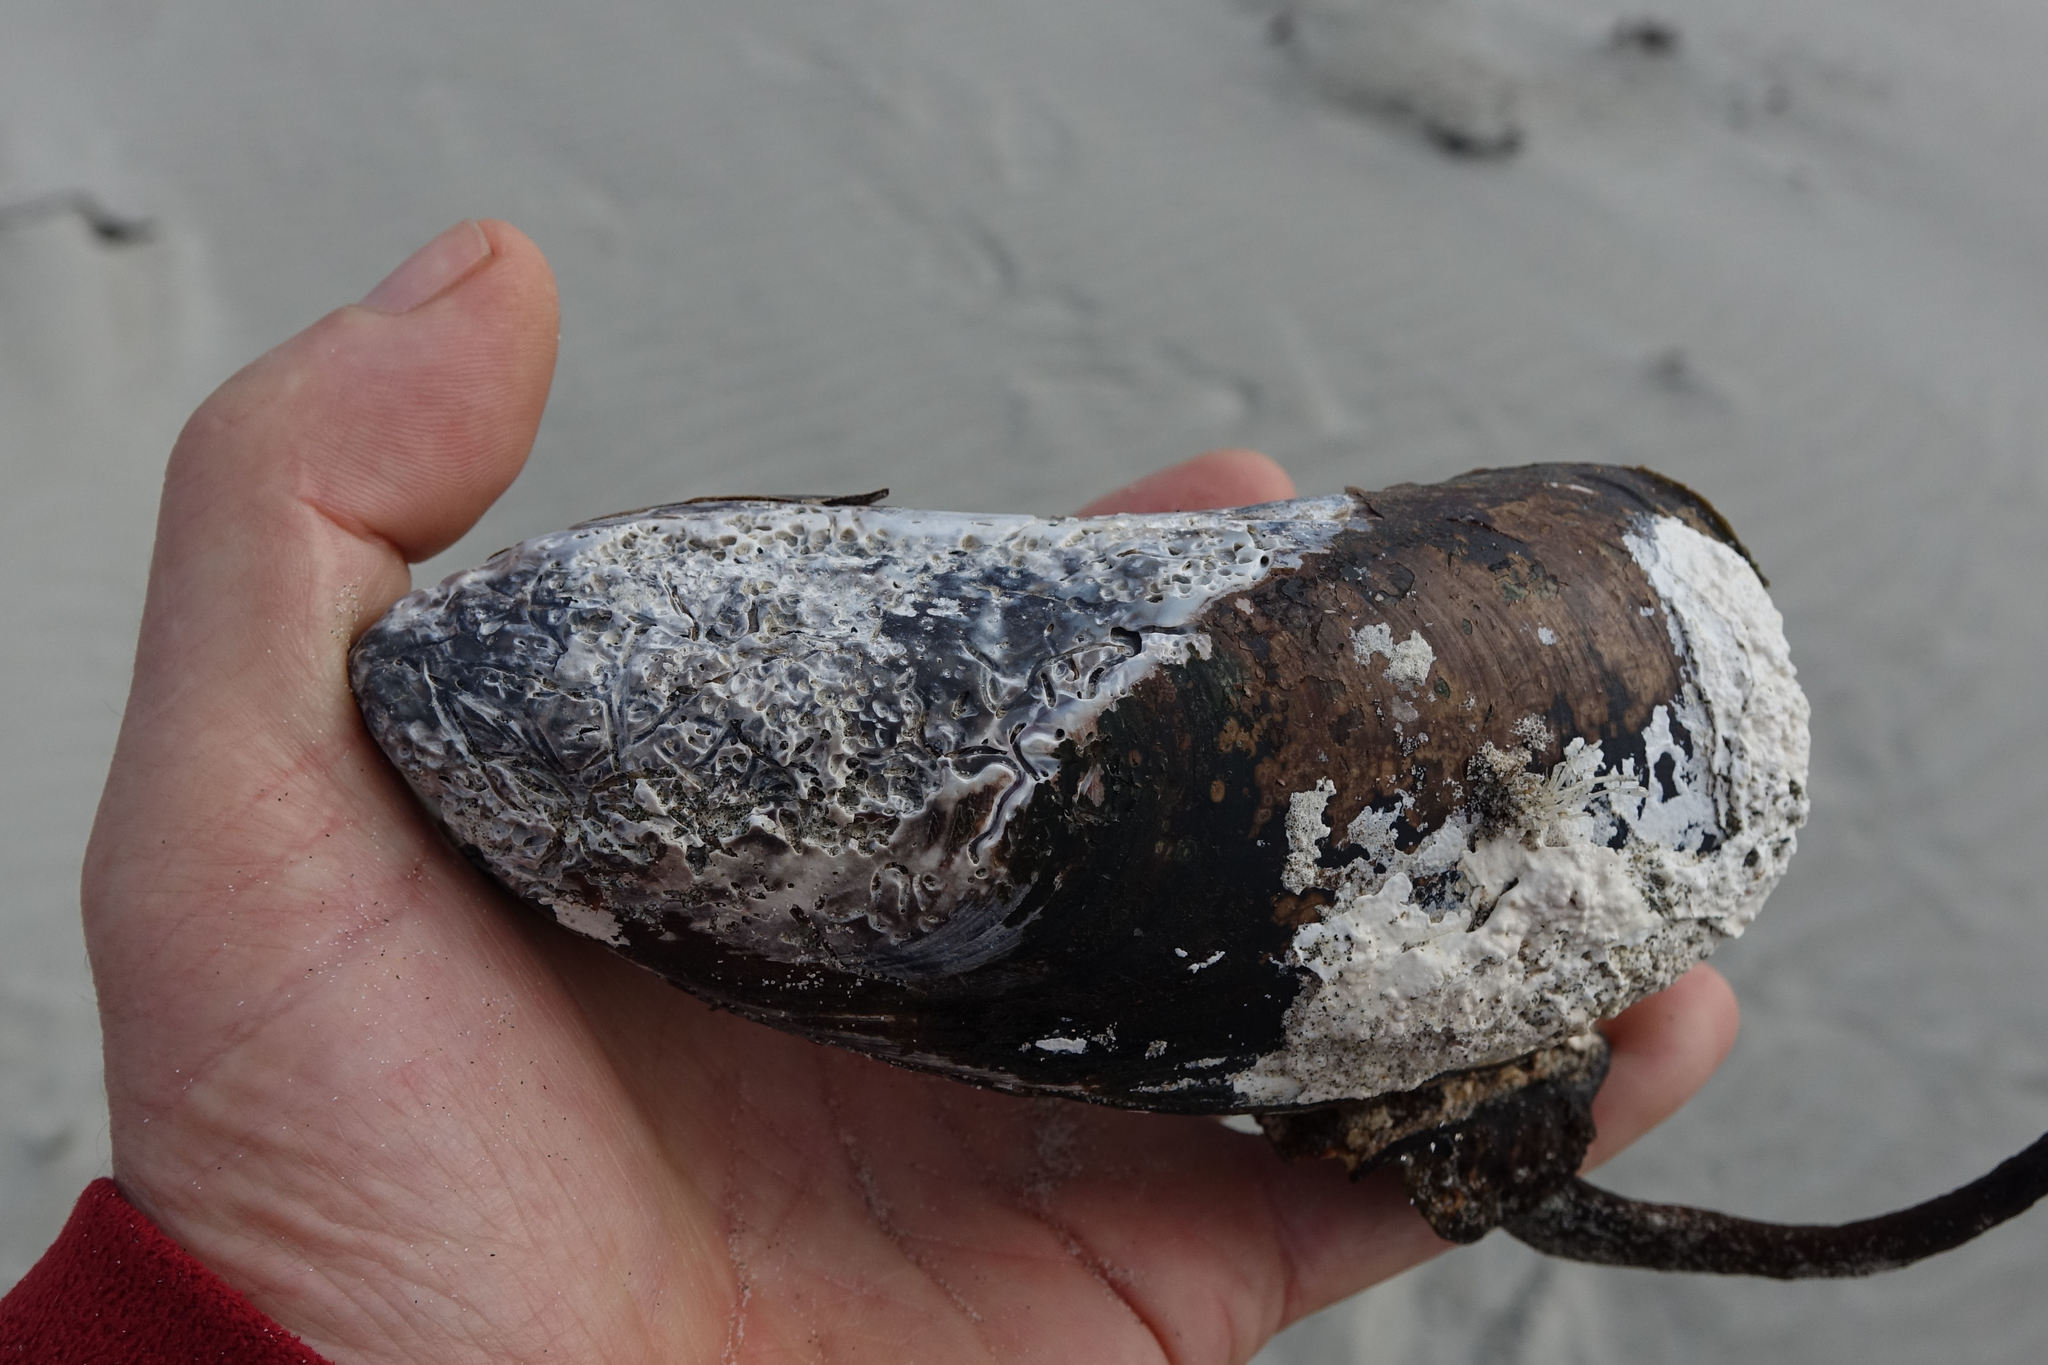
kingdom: Animalia
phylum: Mollusca
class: Bivalvia
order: Mytilida
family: Mytilidae
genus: Perna
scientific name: Perna canaliculus
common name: New zealand greenshelltm
